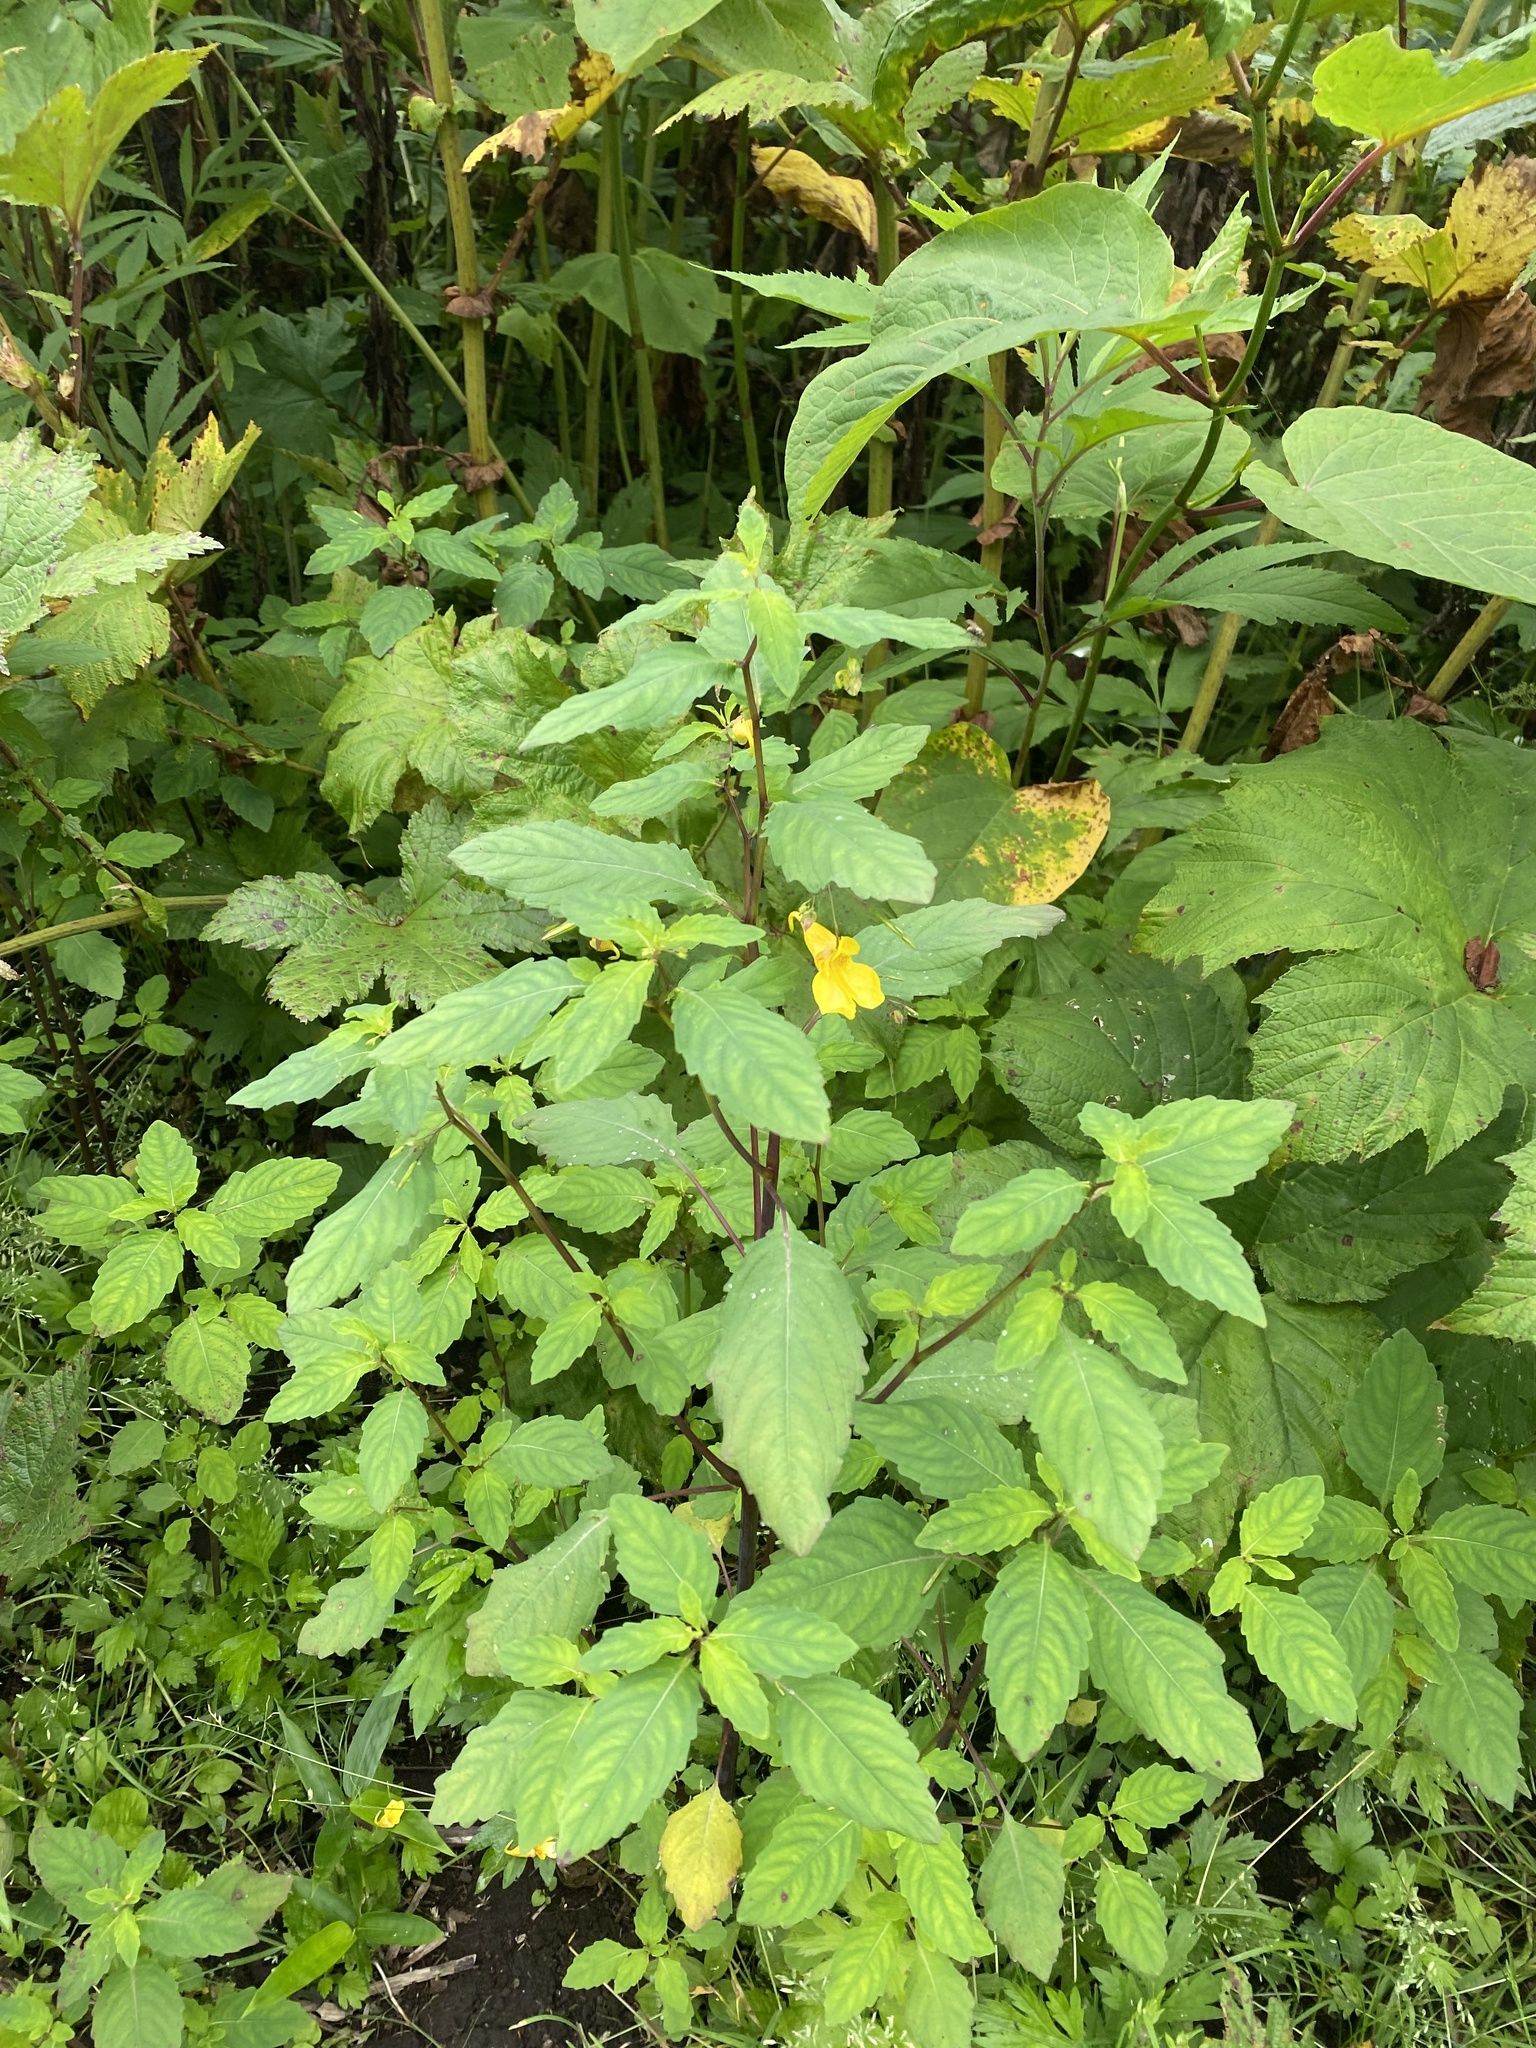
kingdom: Plantae
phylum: Tracheophyta
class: Magnoliopsida
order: Ericales
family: Balsaminaceae
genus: Impatiens
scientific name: Impatiens noli-tangere
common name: Touch-me-not balsam
